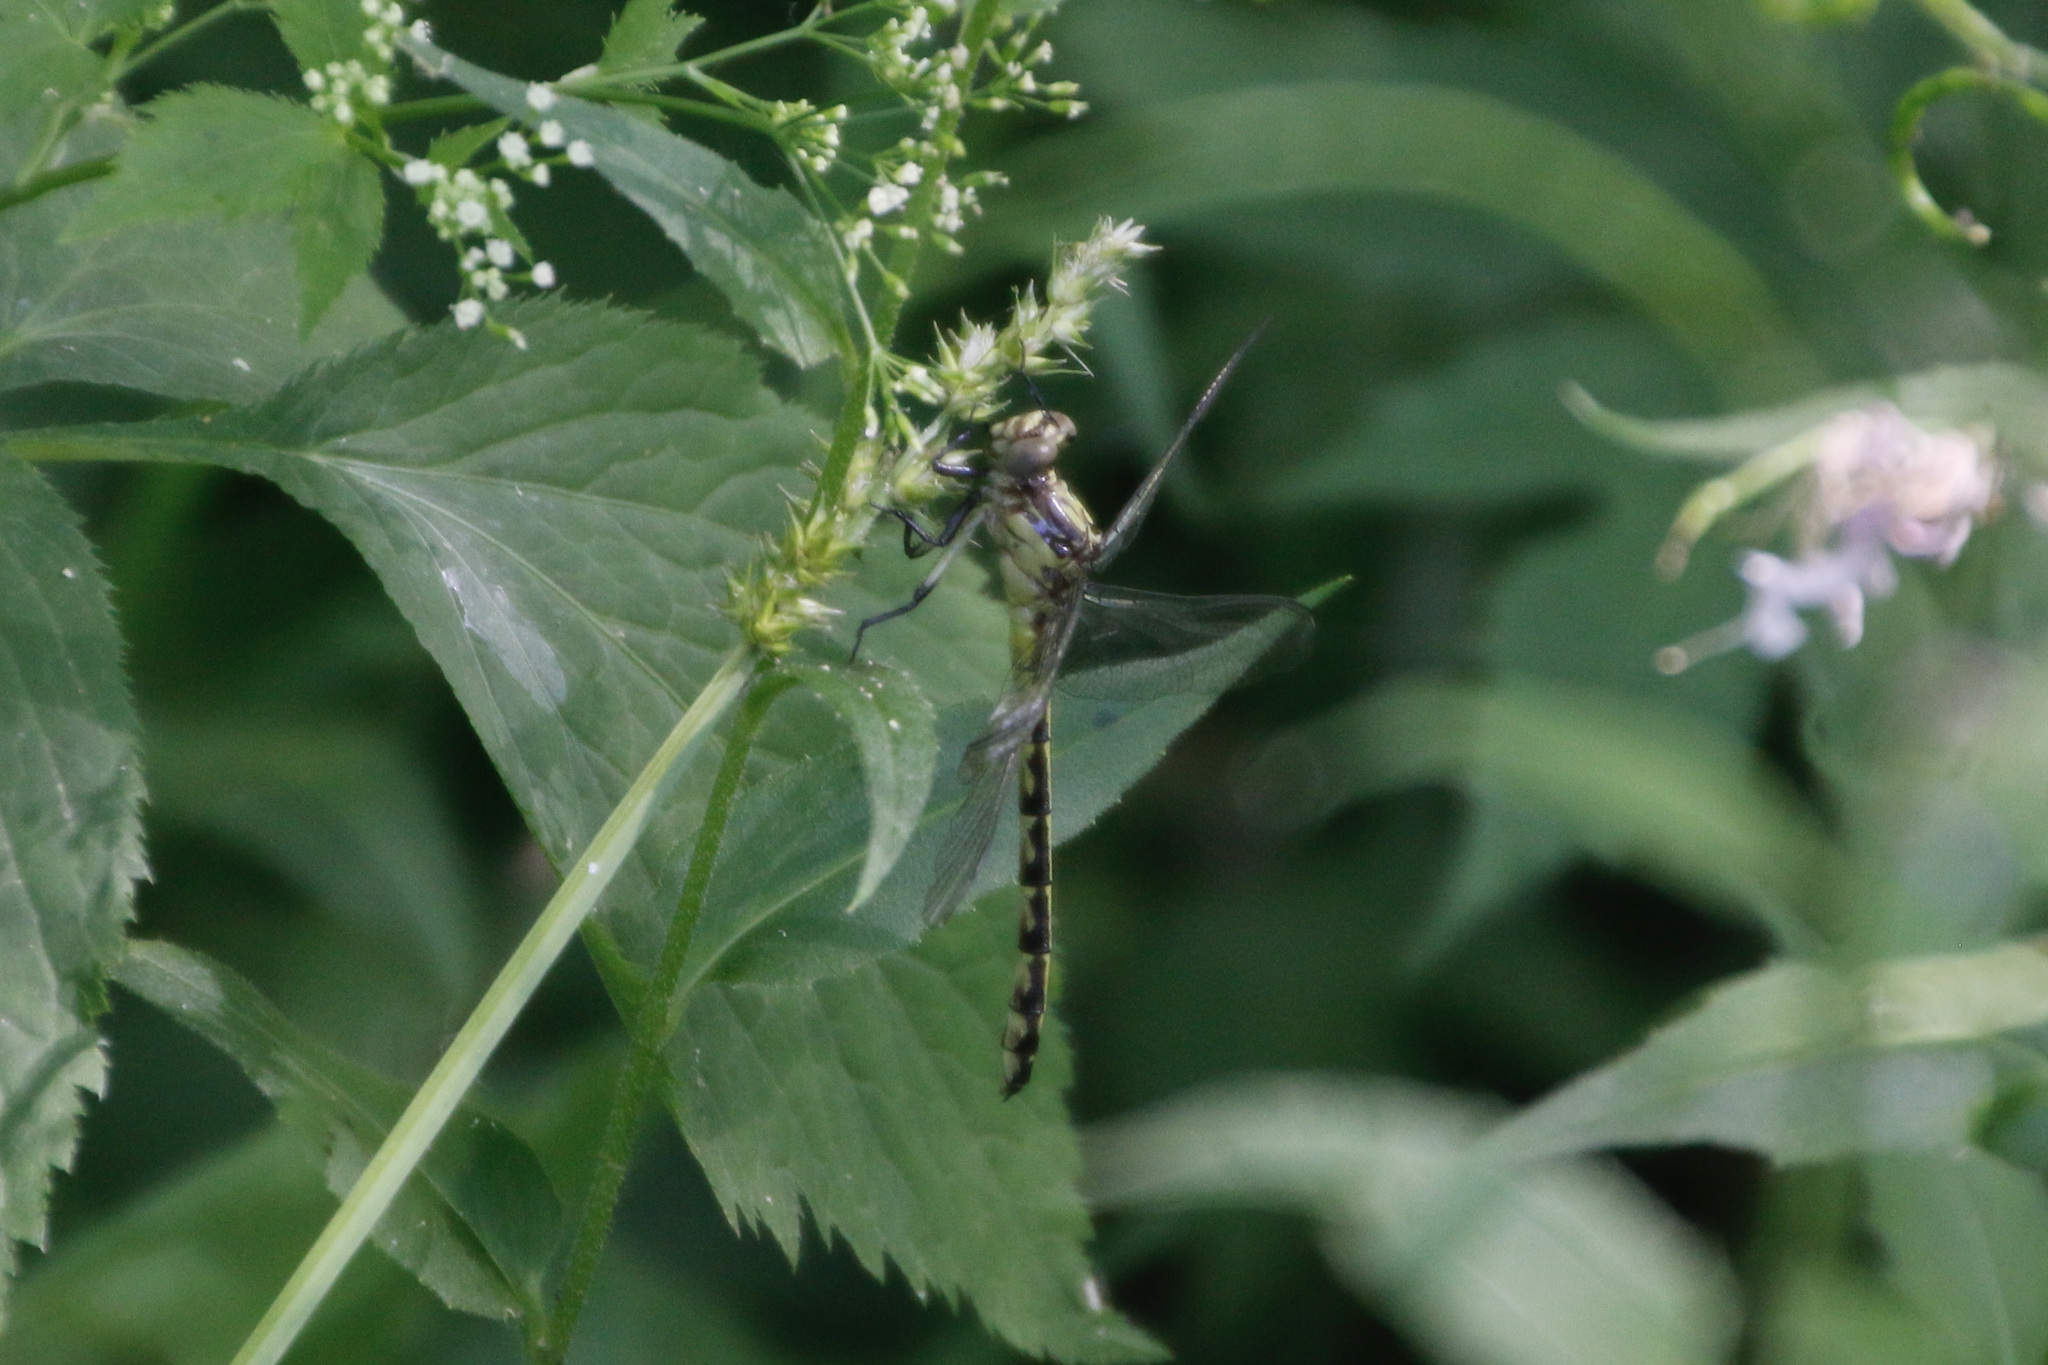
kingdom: Animalia
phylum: Arthropoda
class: Insecta
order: Odonata
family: Gomphidae
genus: Stylurus
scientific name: Stylurus amnicola
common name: Riverine clubtail
